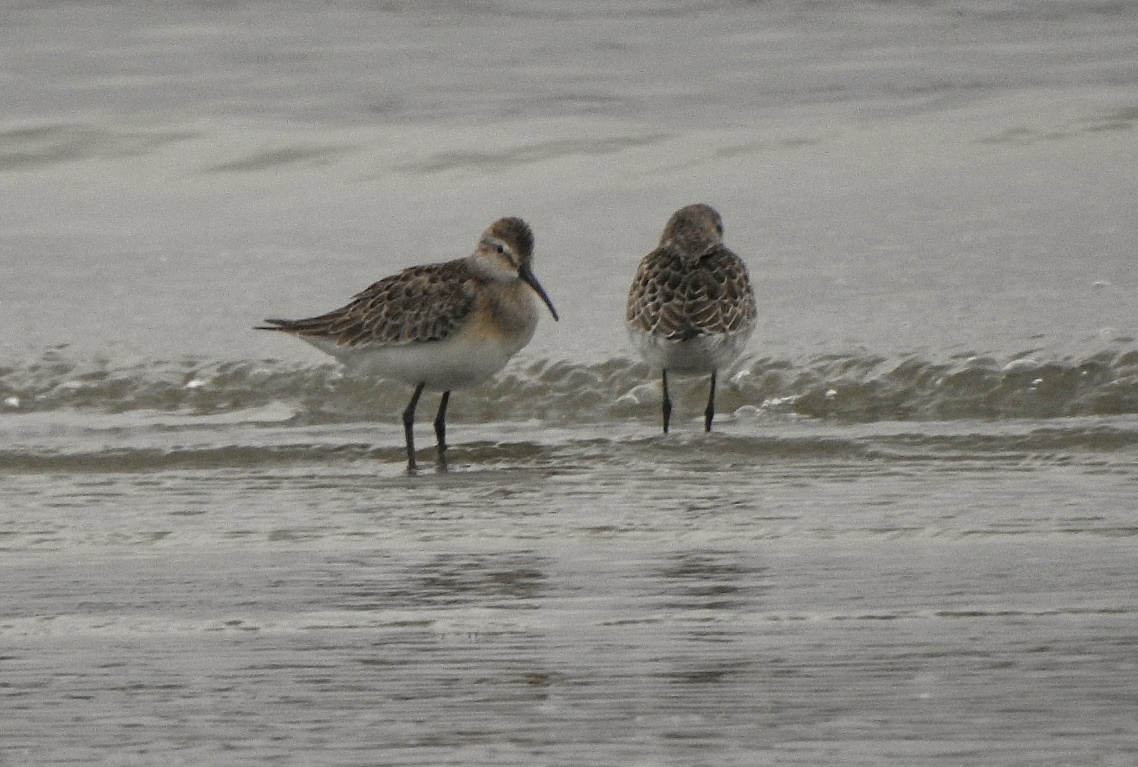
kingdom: Animalia
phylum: Chordata
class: Aves
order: Charadriiformes
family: Scolopacidae
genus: Calidris
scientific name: Calidris ferruginea
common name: Curlew sandpiper
